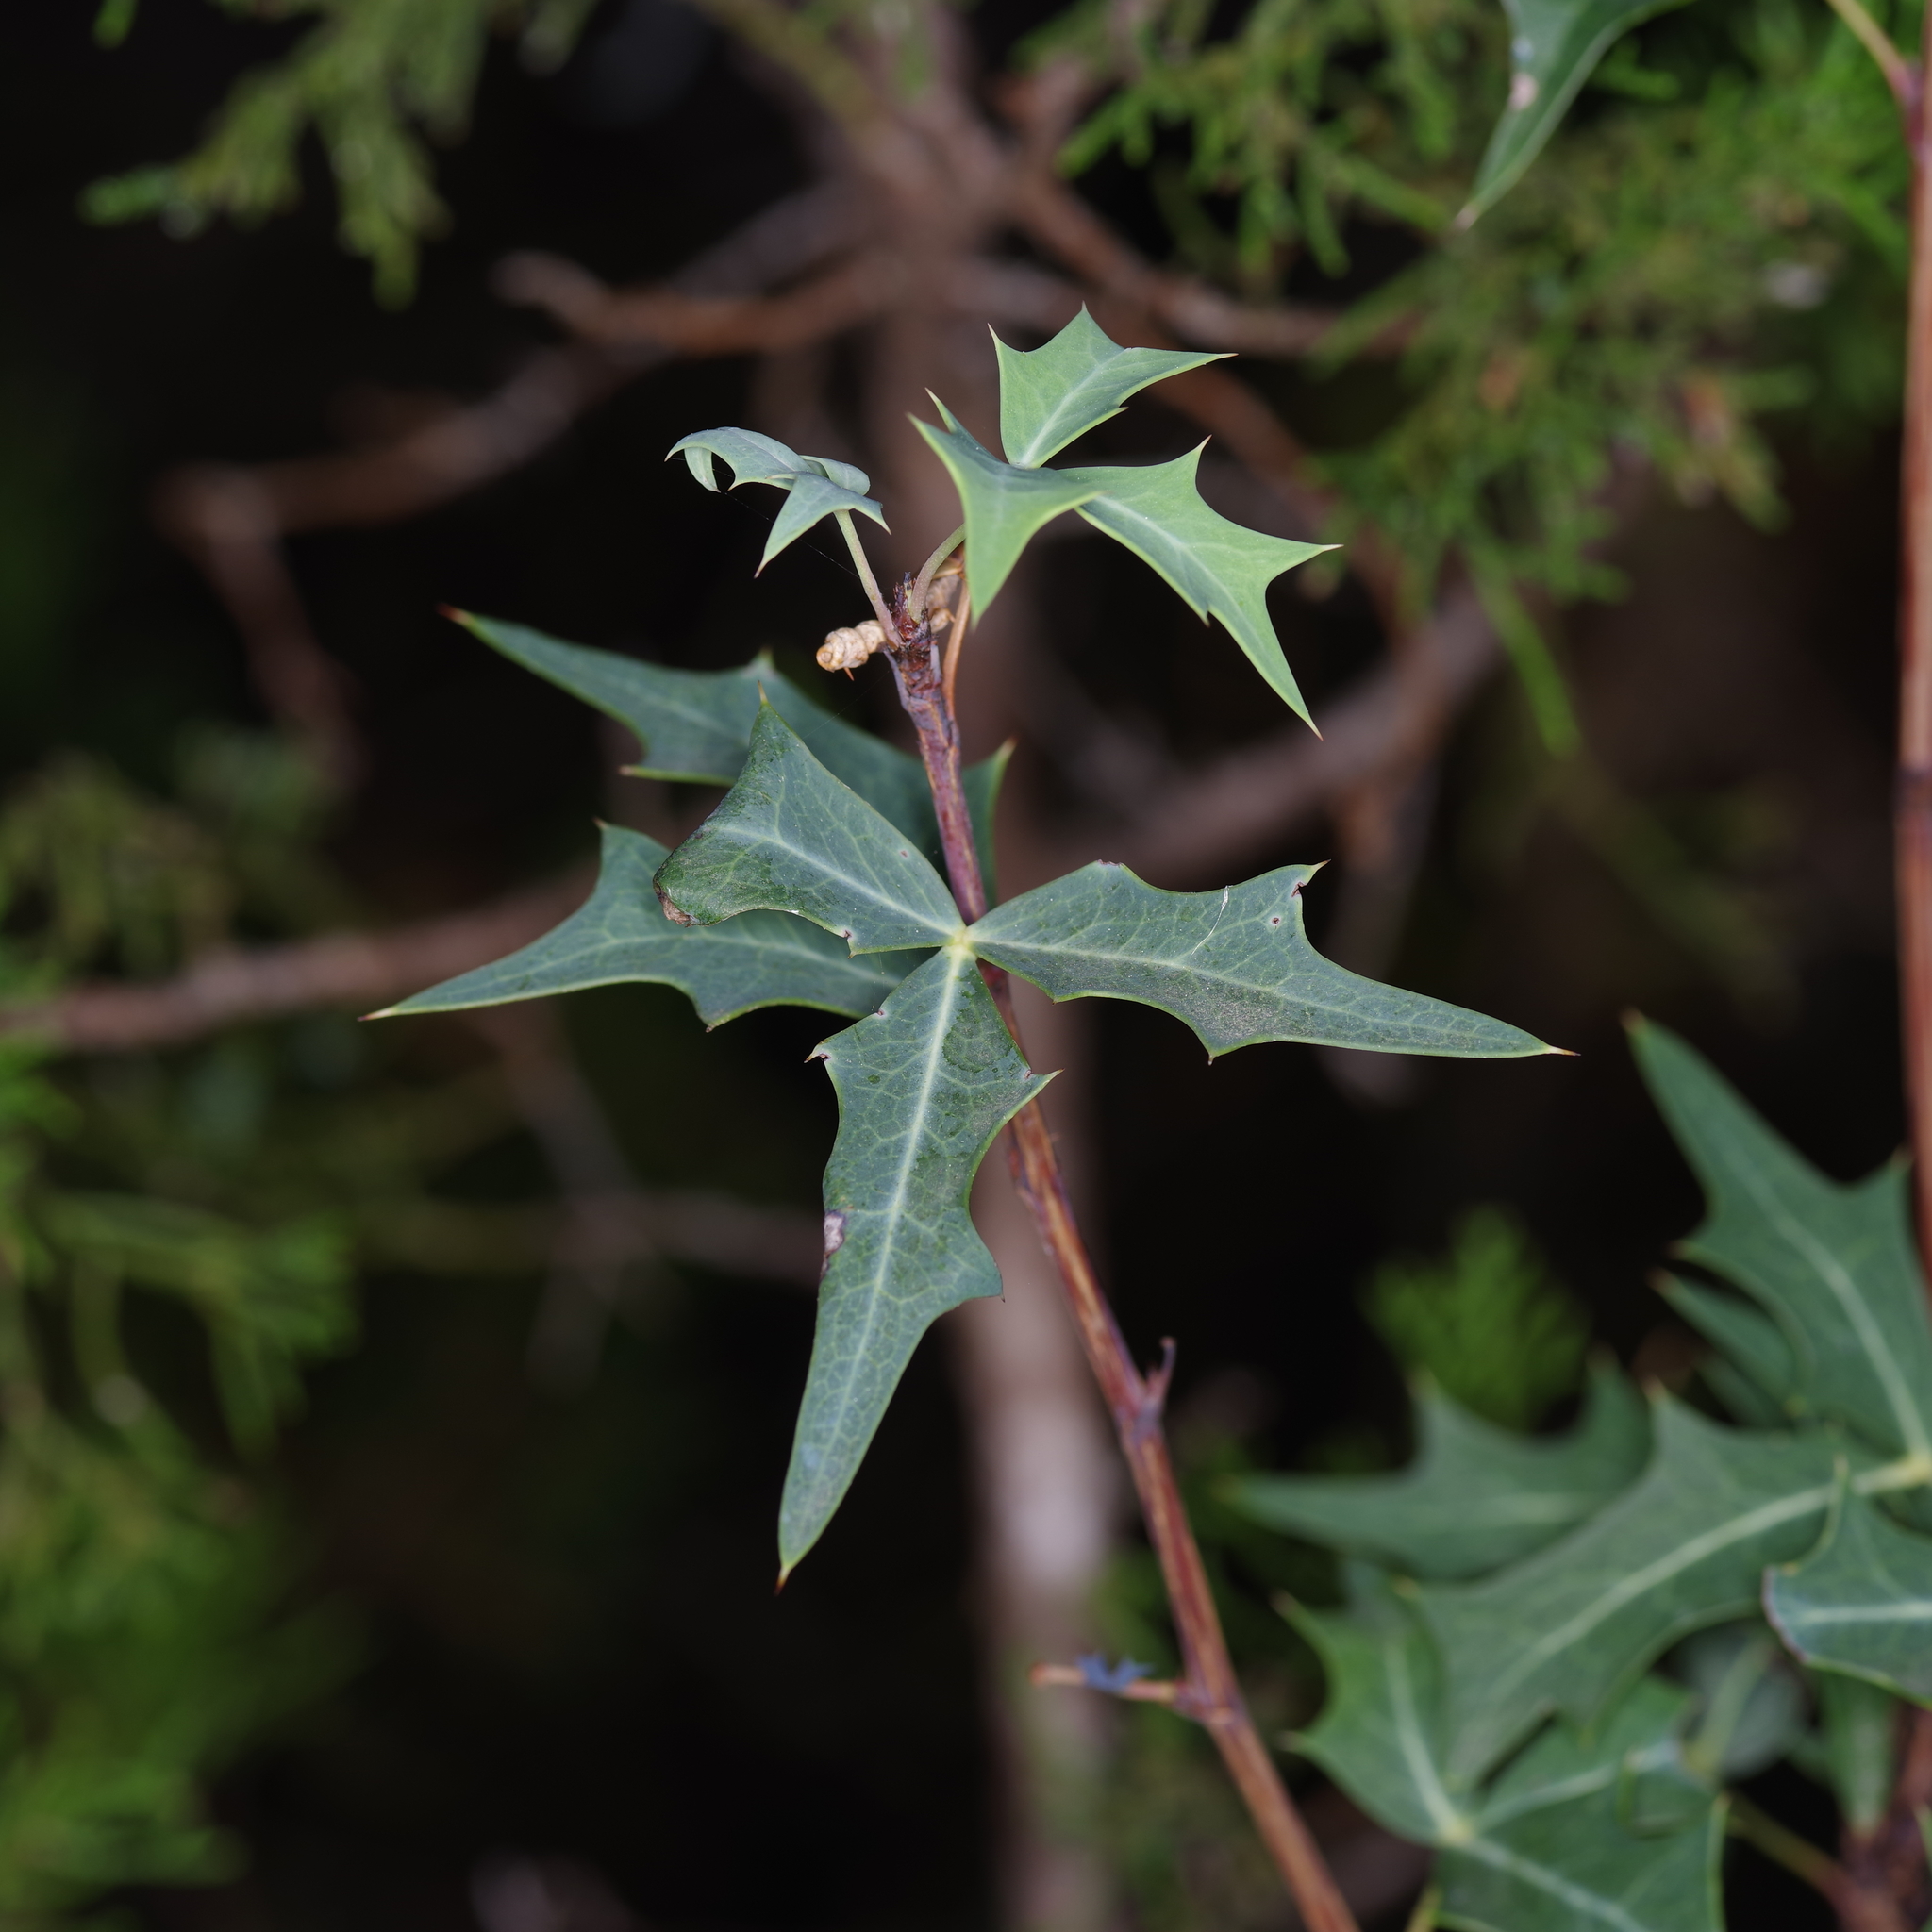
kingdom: Plantae
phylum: Tracheophyta
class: Magnoliopsida
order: Ranunculales
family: Berberidaceae
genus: Alloberberis
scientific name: Alloberberis trifoliolata
